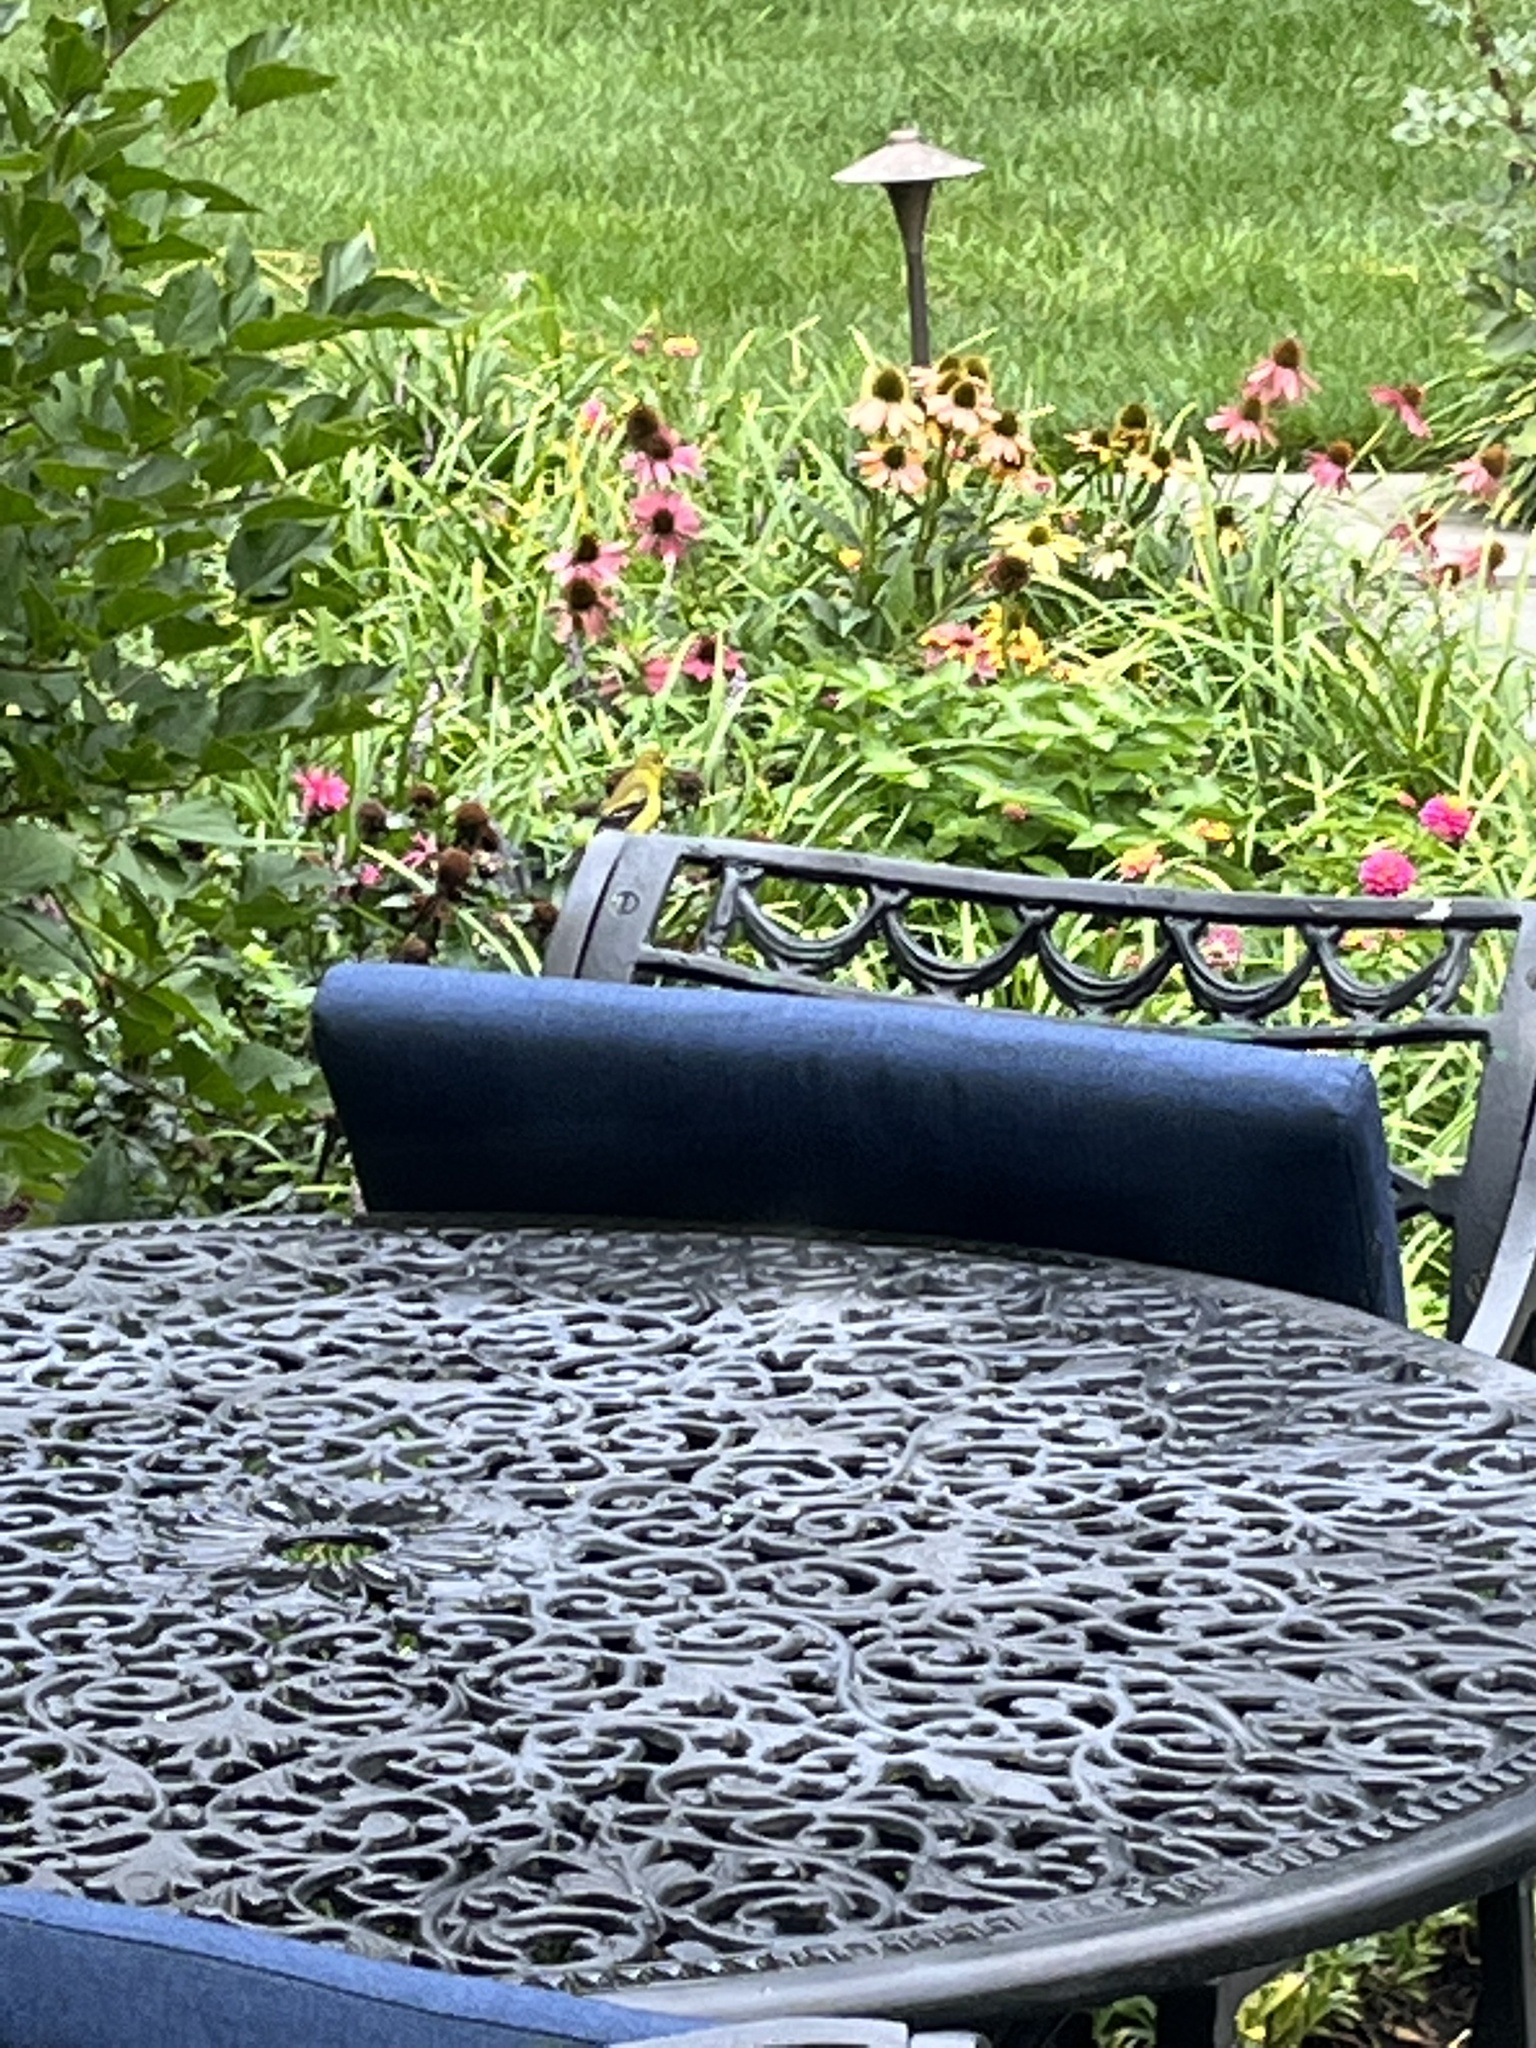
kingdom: Animalia
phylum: Chordata
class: Aves
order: Passeriformes
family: Fringillidae
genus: Spinus
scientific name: Spinus tristis
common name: American goldfinch
